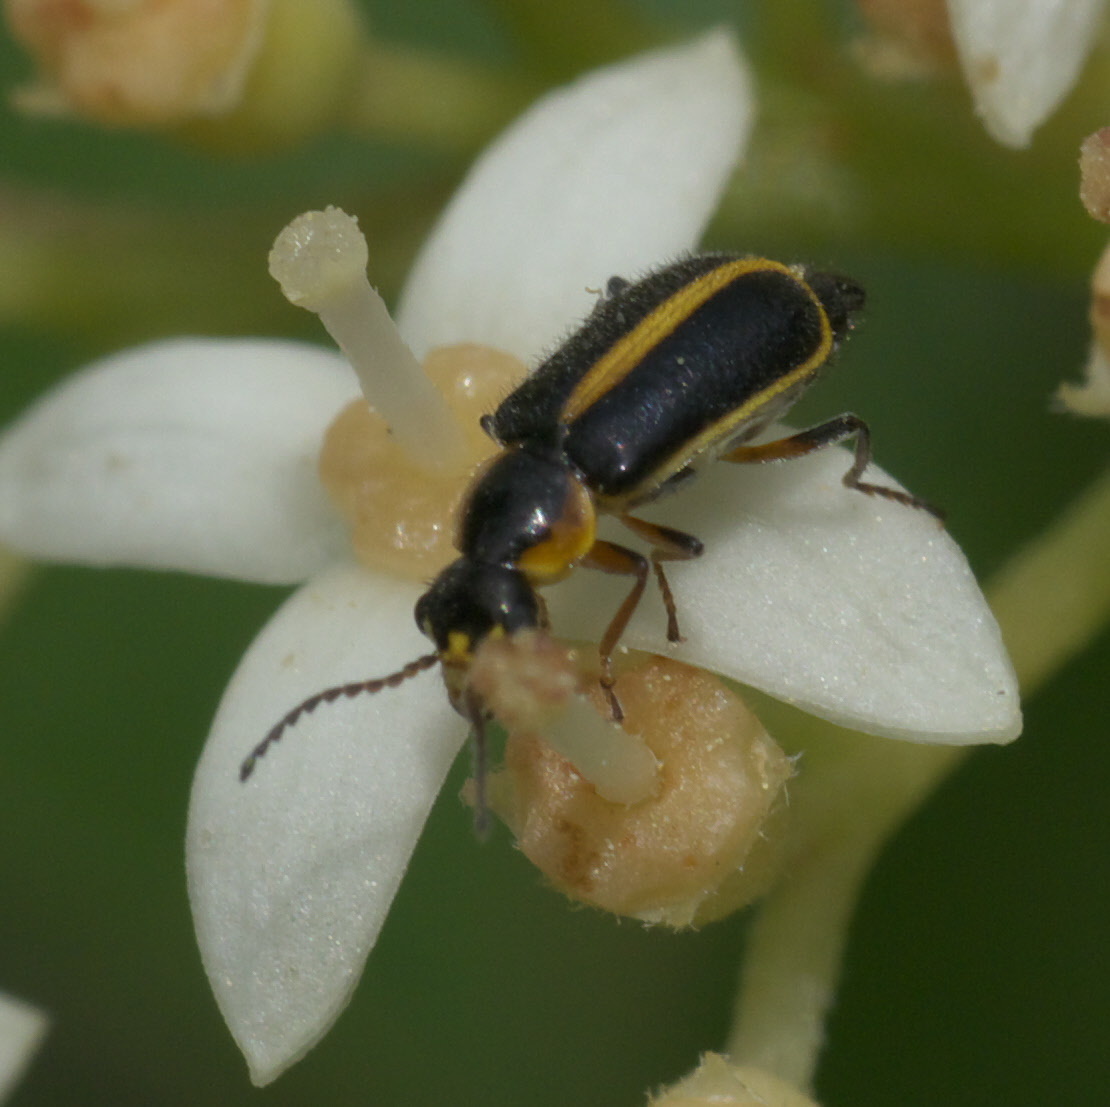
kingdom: Animalia
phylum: Arthropoda
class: Insecta
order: Coleoptera
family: Malachiidae
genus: Attalus
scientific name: Attalus
